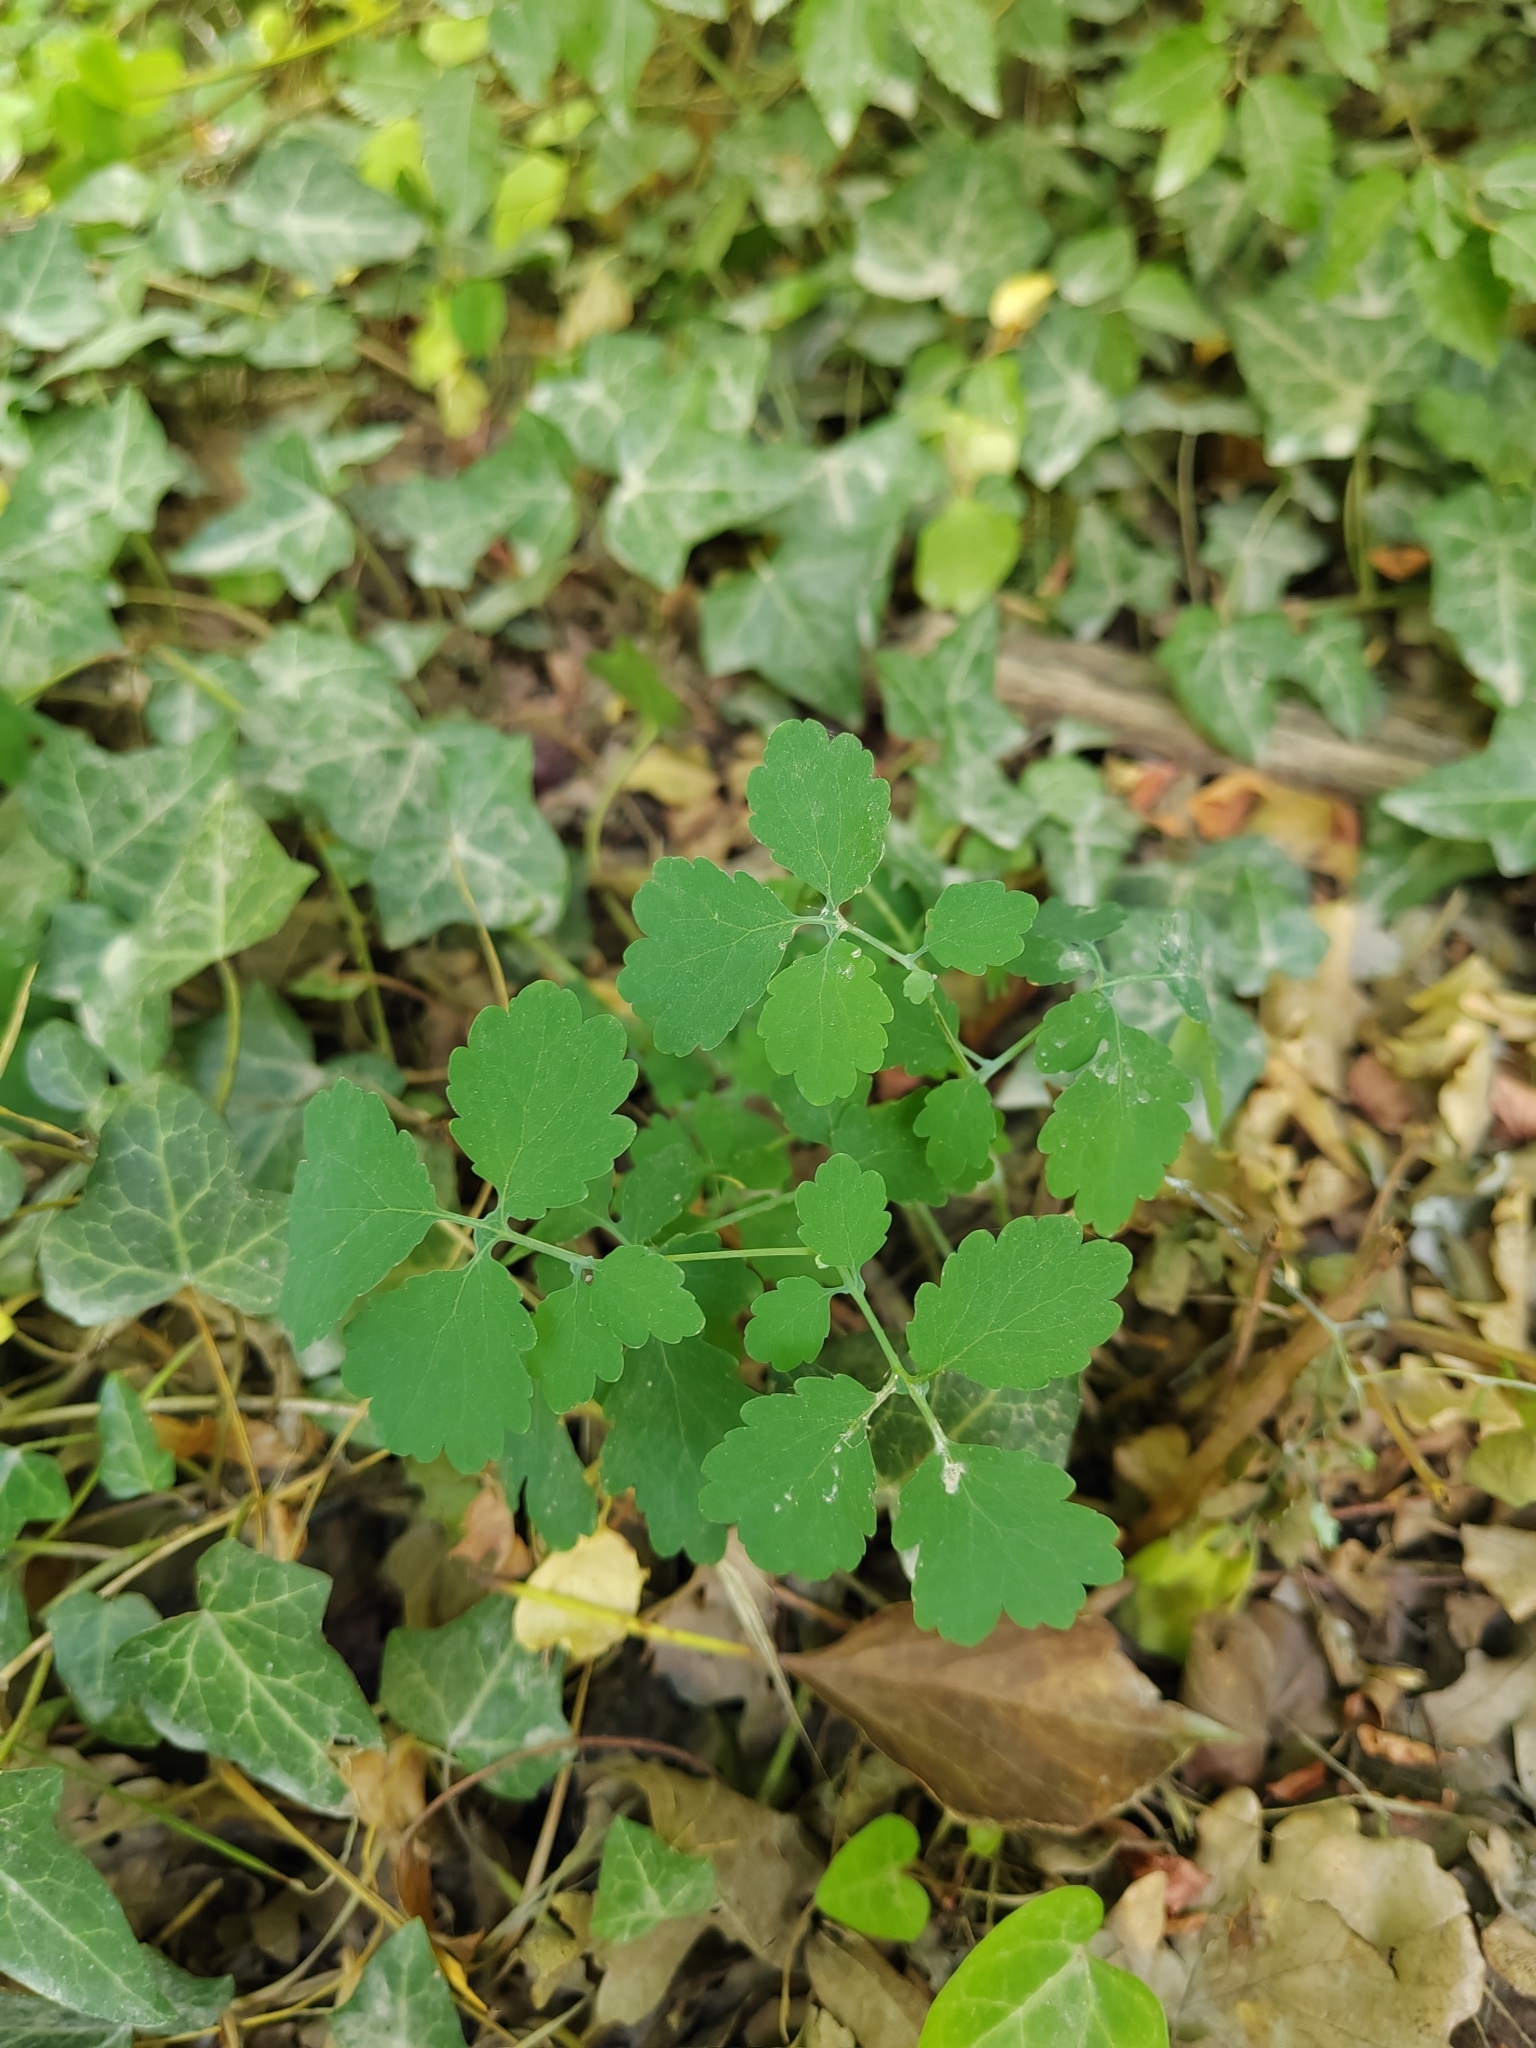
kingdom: Plantae
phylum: Tracheophyta
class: Magnoliopsida
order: Ranunculales
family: Papaveraceae
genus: Chelidonium
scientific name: Chelidonium majus
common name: Greater celandine
